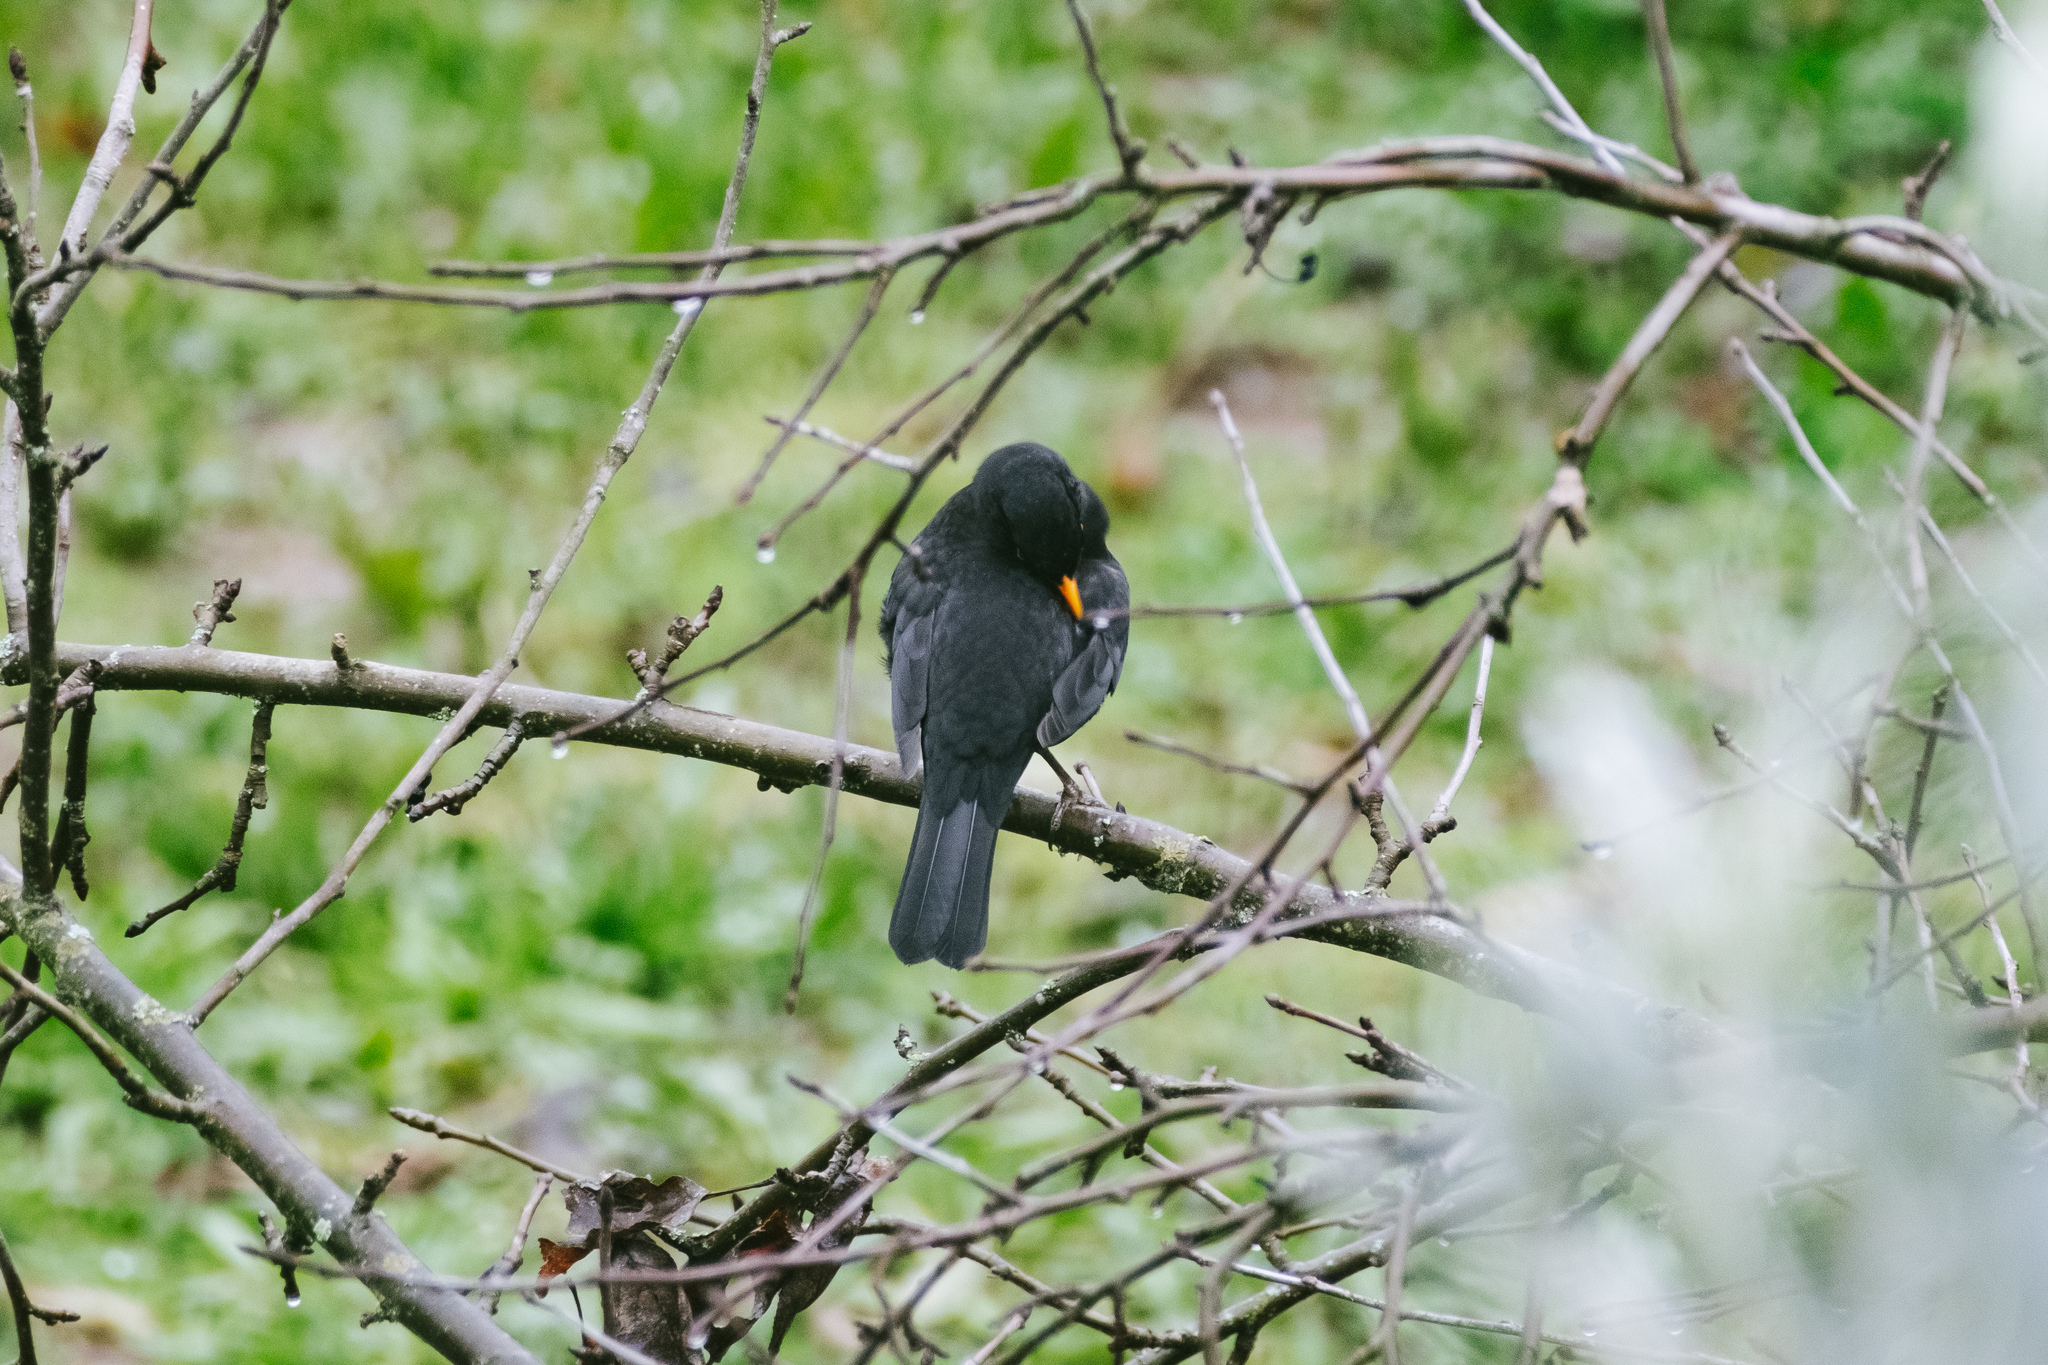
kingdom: Animalia
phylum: Chordata
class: Aves
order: Passeriformes
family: Turdidae
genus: Turdus
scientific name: Turdus merula
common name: Common blackbird
